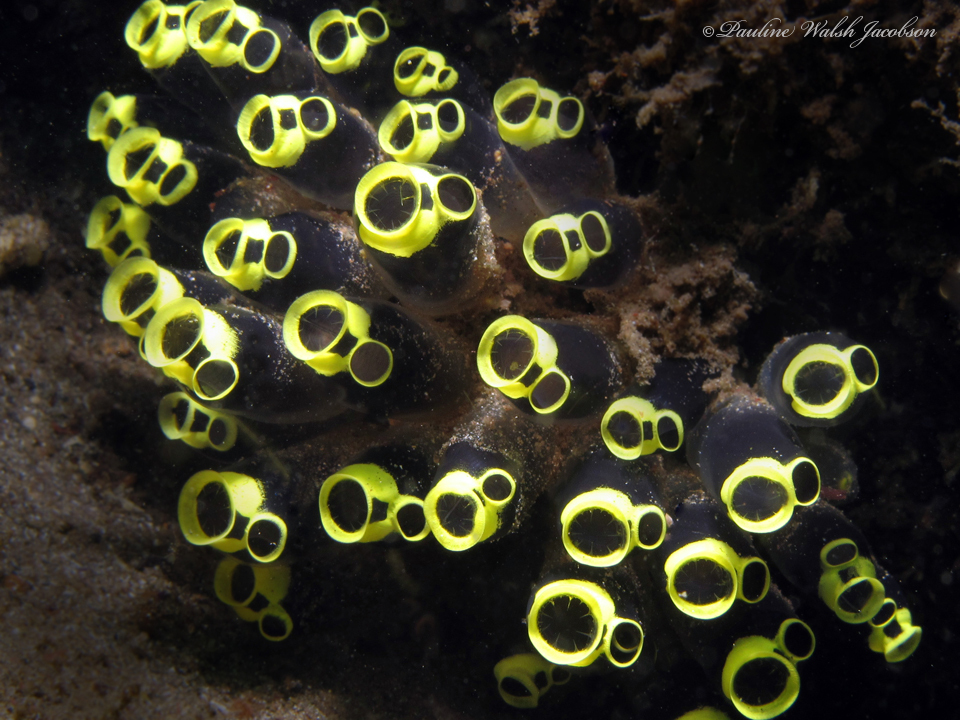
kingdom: Animalia
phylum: Chordata
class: Ascidiacea
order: Aplousobranchia
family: Clavelinidae
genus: Clavelina
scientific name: Clavelina robusta
